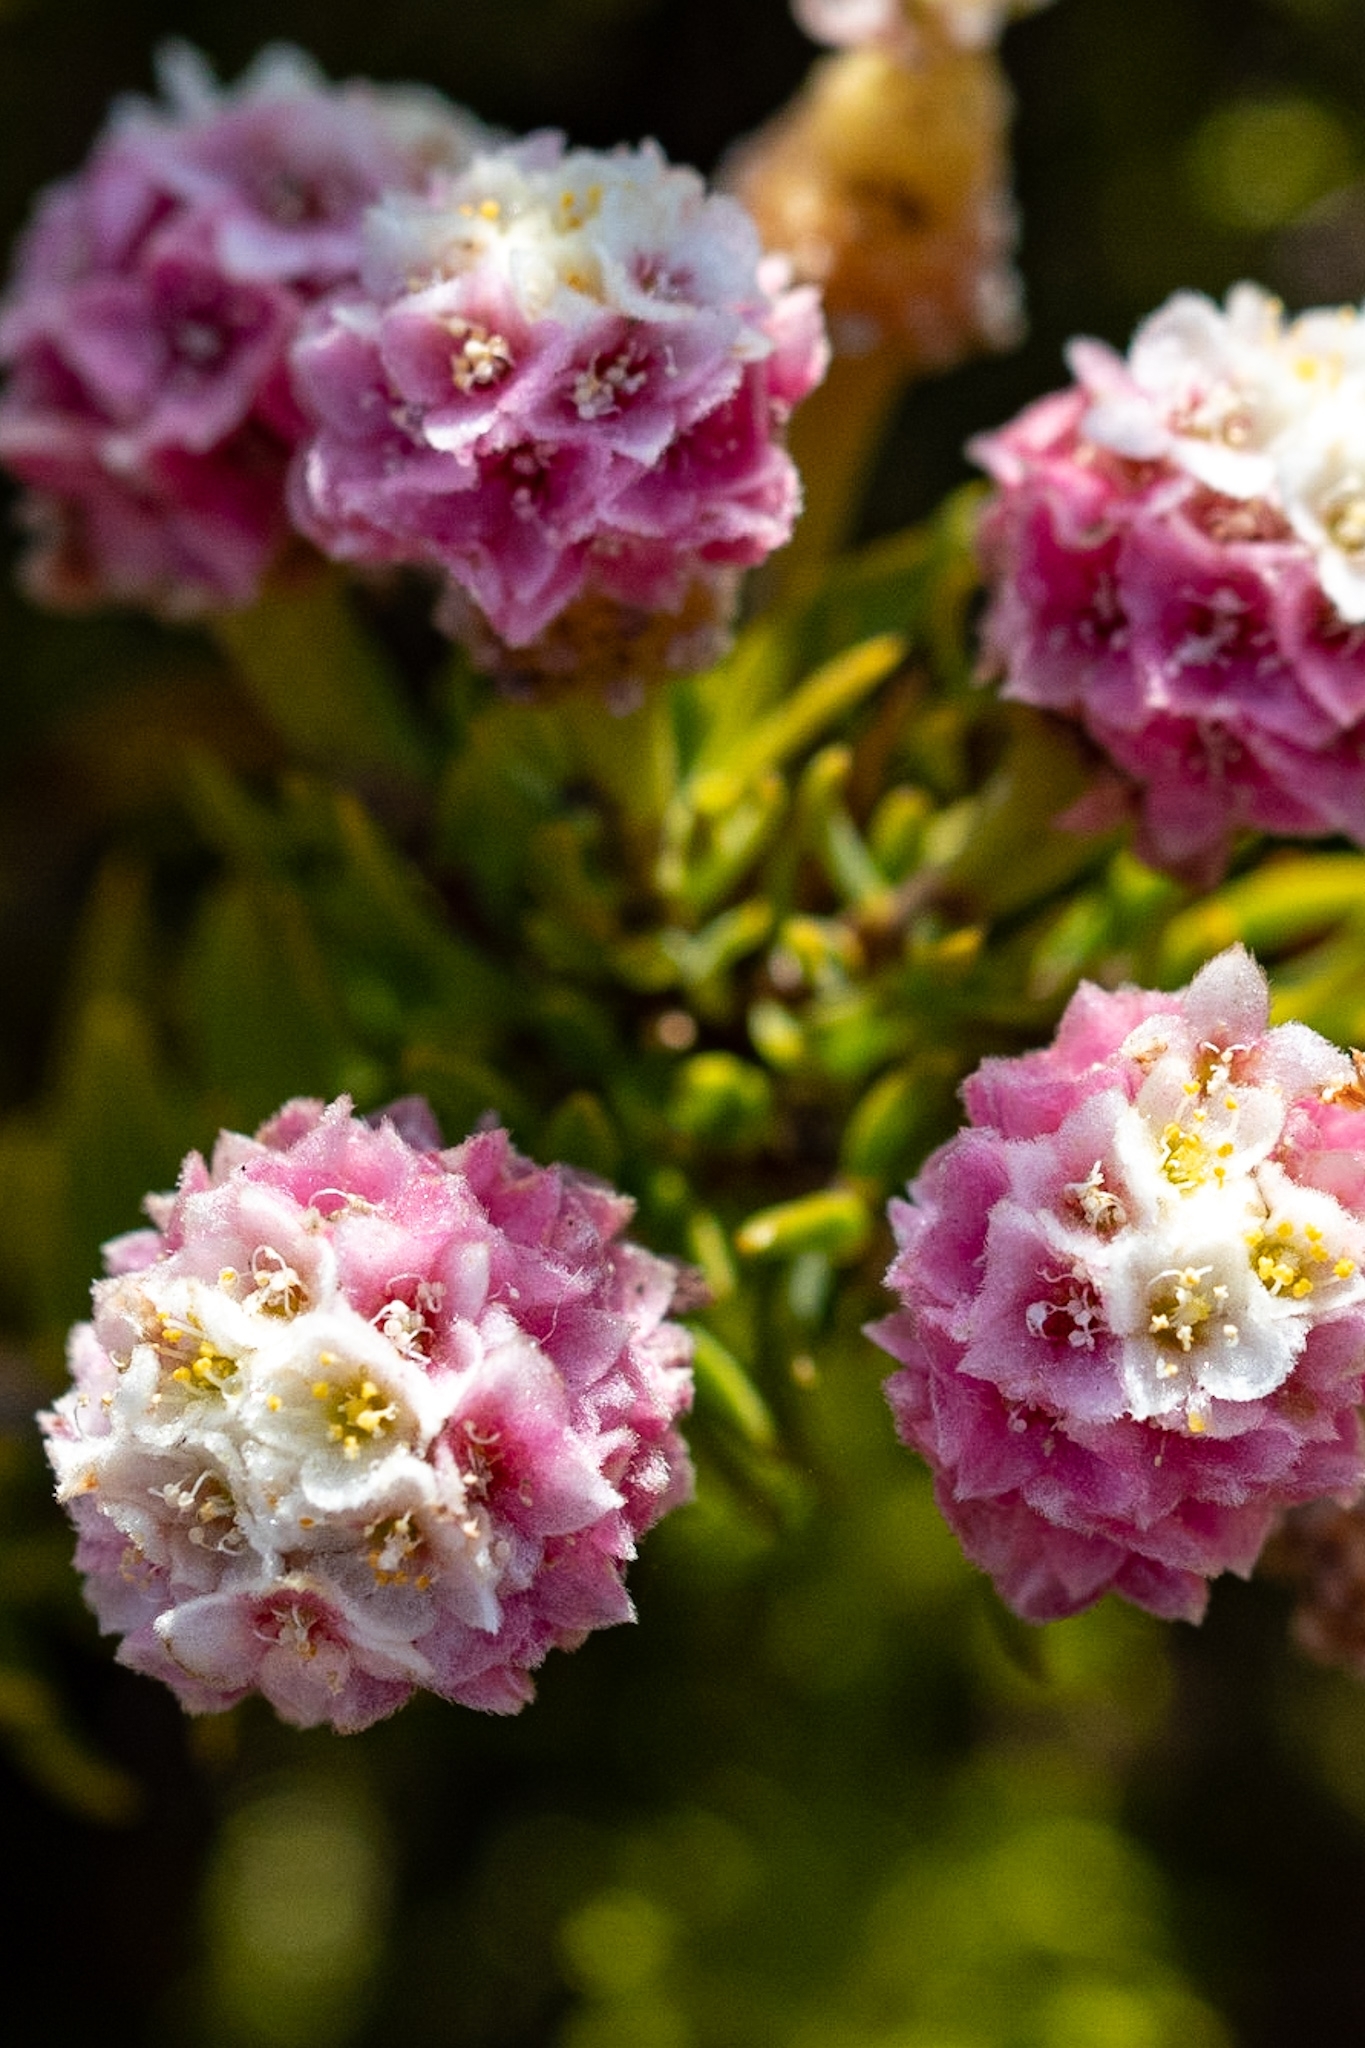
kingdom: Plantae
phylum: Tracheophyta
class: Magnoliopsida
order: Malvales
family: Thymelaeaceae
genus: Lachnaea
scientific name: Lachnaea densiflora
